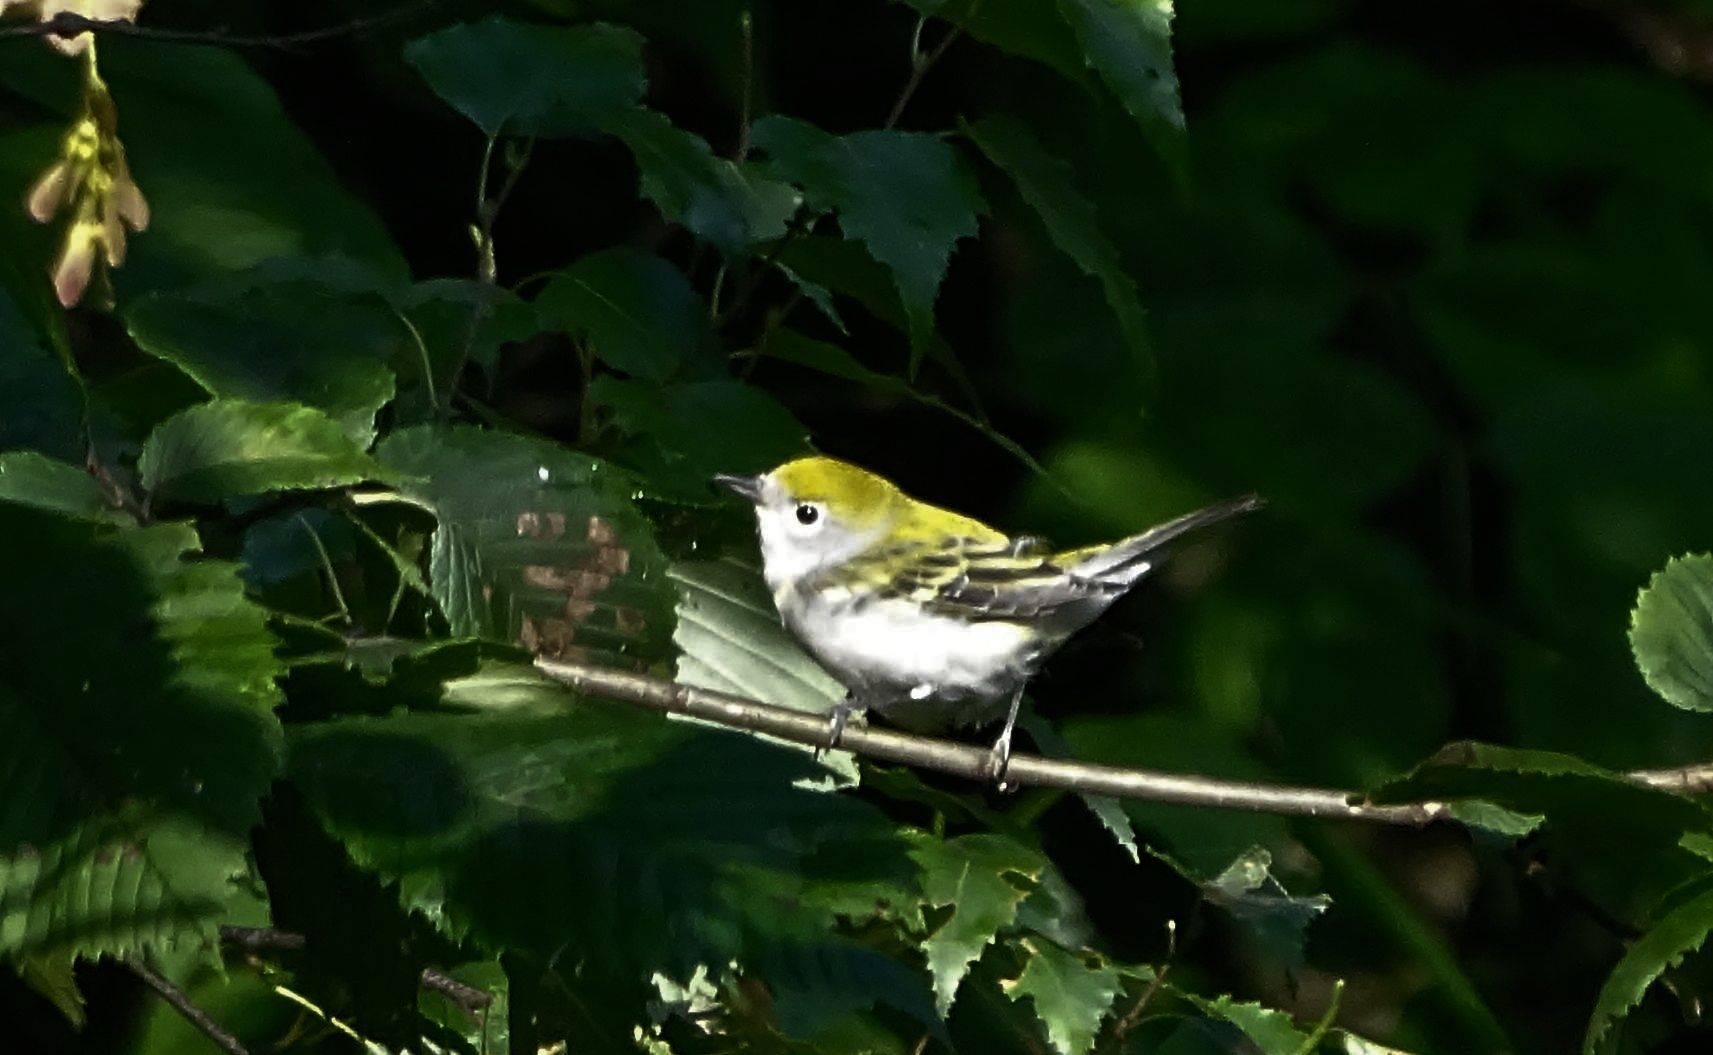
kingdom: Animalia
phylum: Chordata
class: Aves
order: Passeriformes
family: Parulidae
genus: Setophaga
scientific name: Setophaga pensylvanica
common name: Chestnut-sided warbler
